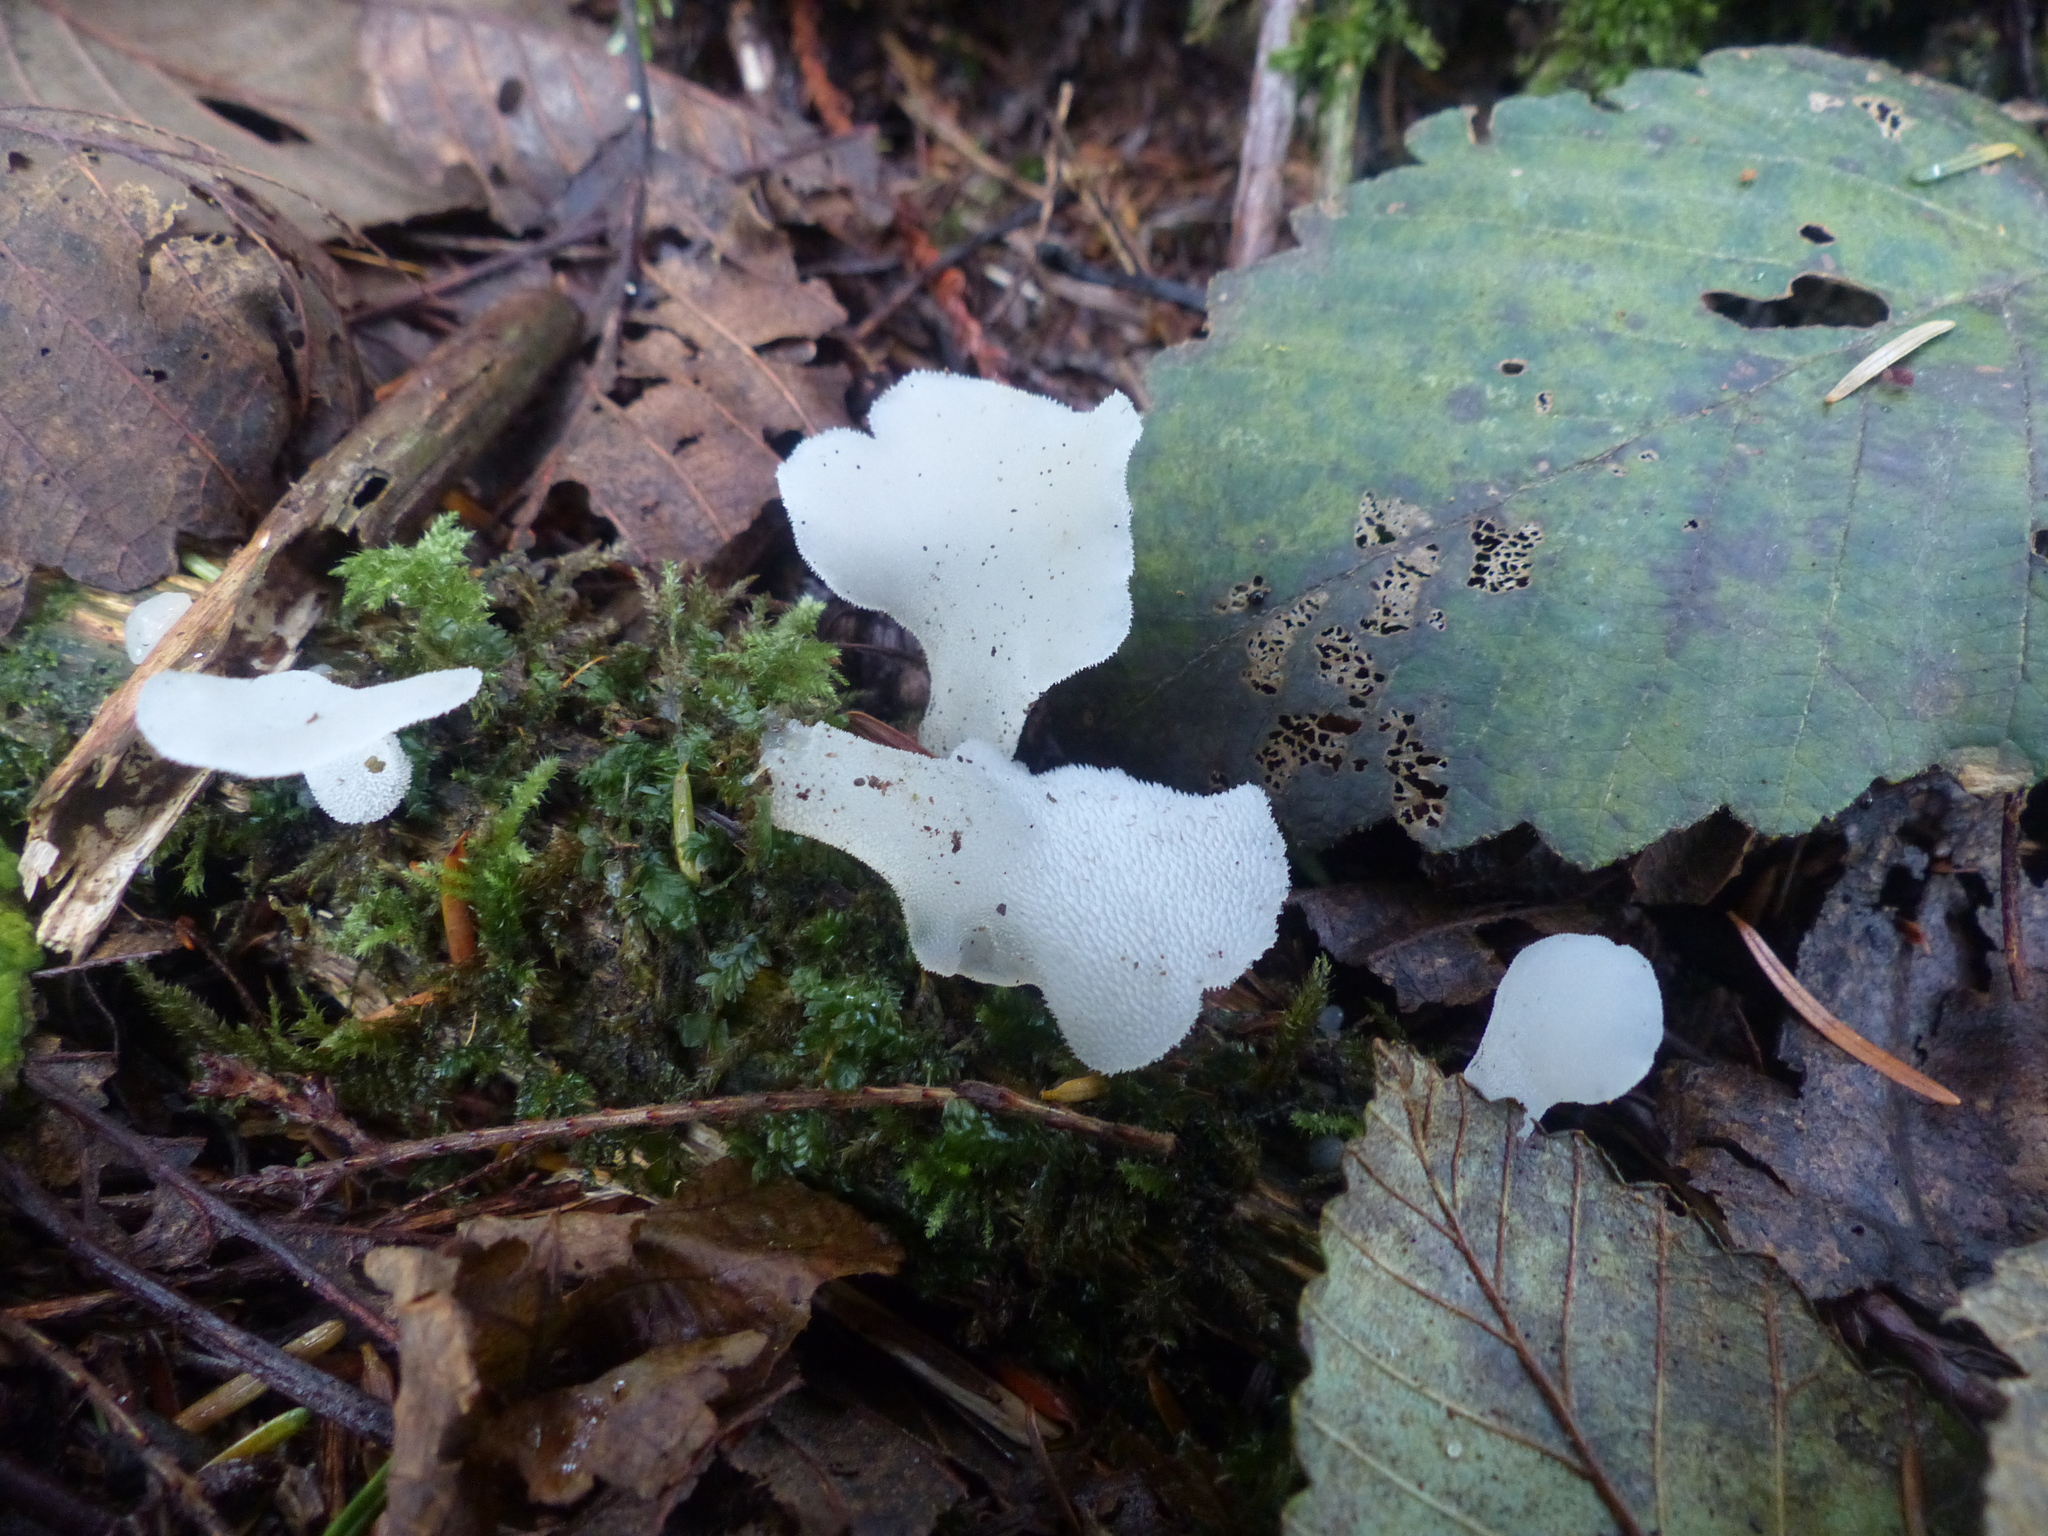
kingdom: Fungi
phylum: Basidiomycota
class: Agaricomycetes
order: Auriculariales
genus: Pseudohydnum
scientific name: Pseudohydnum gelatinosum
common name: Jelly tongue
